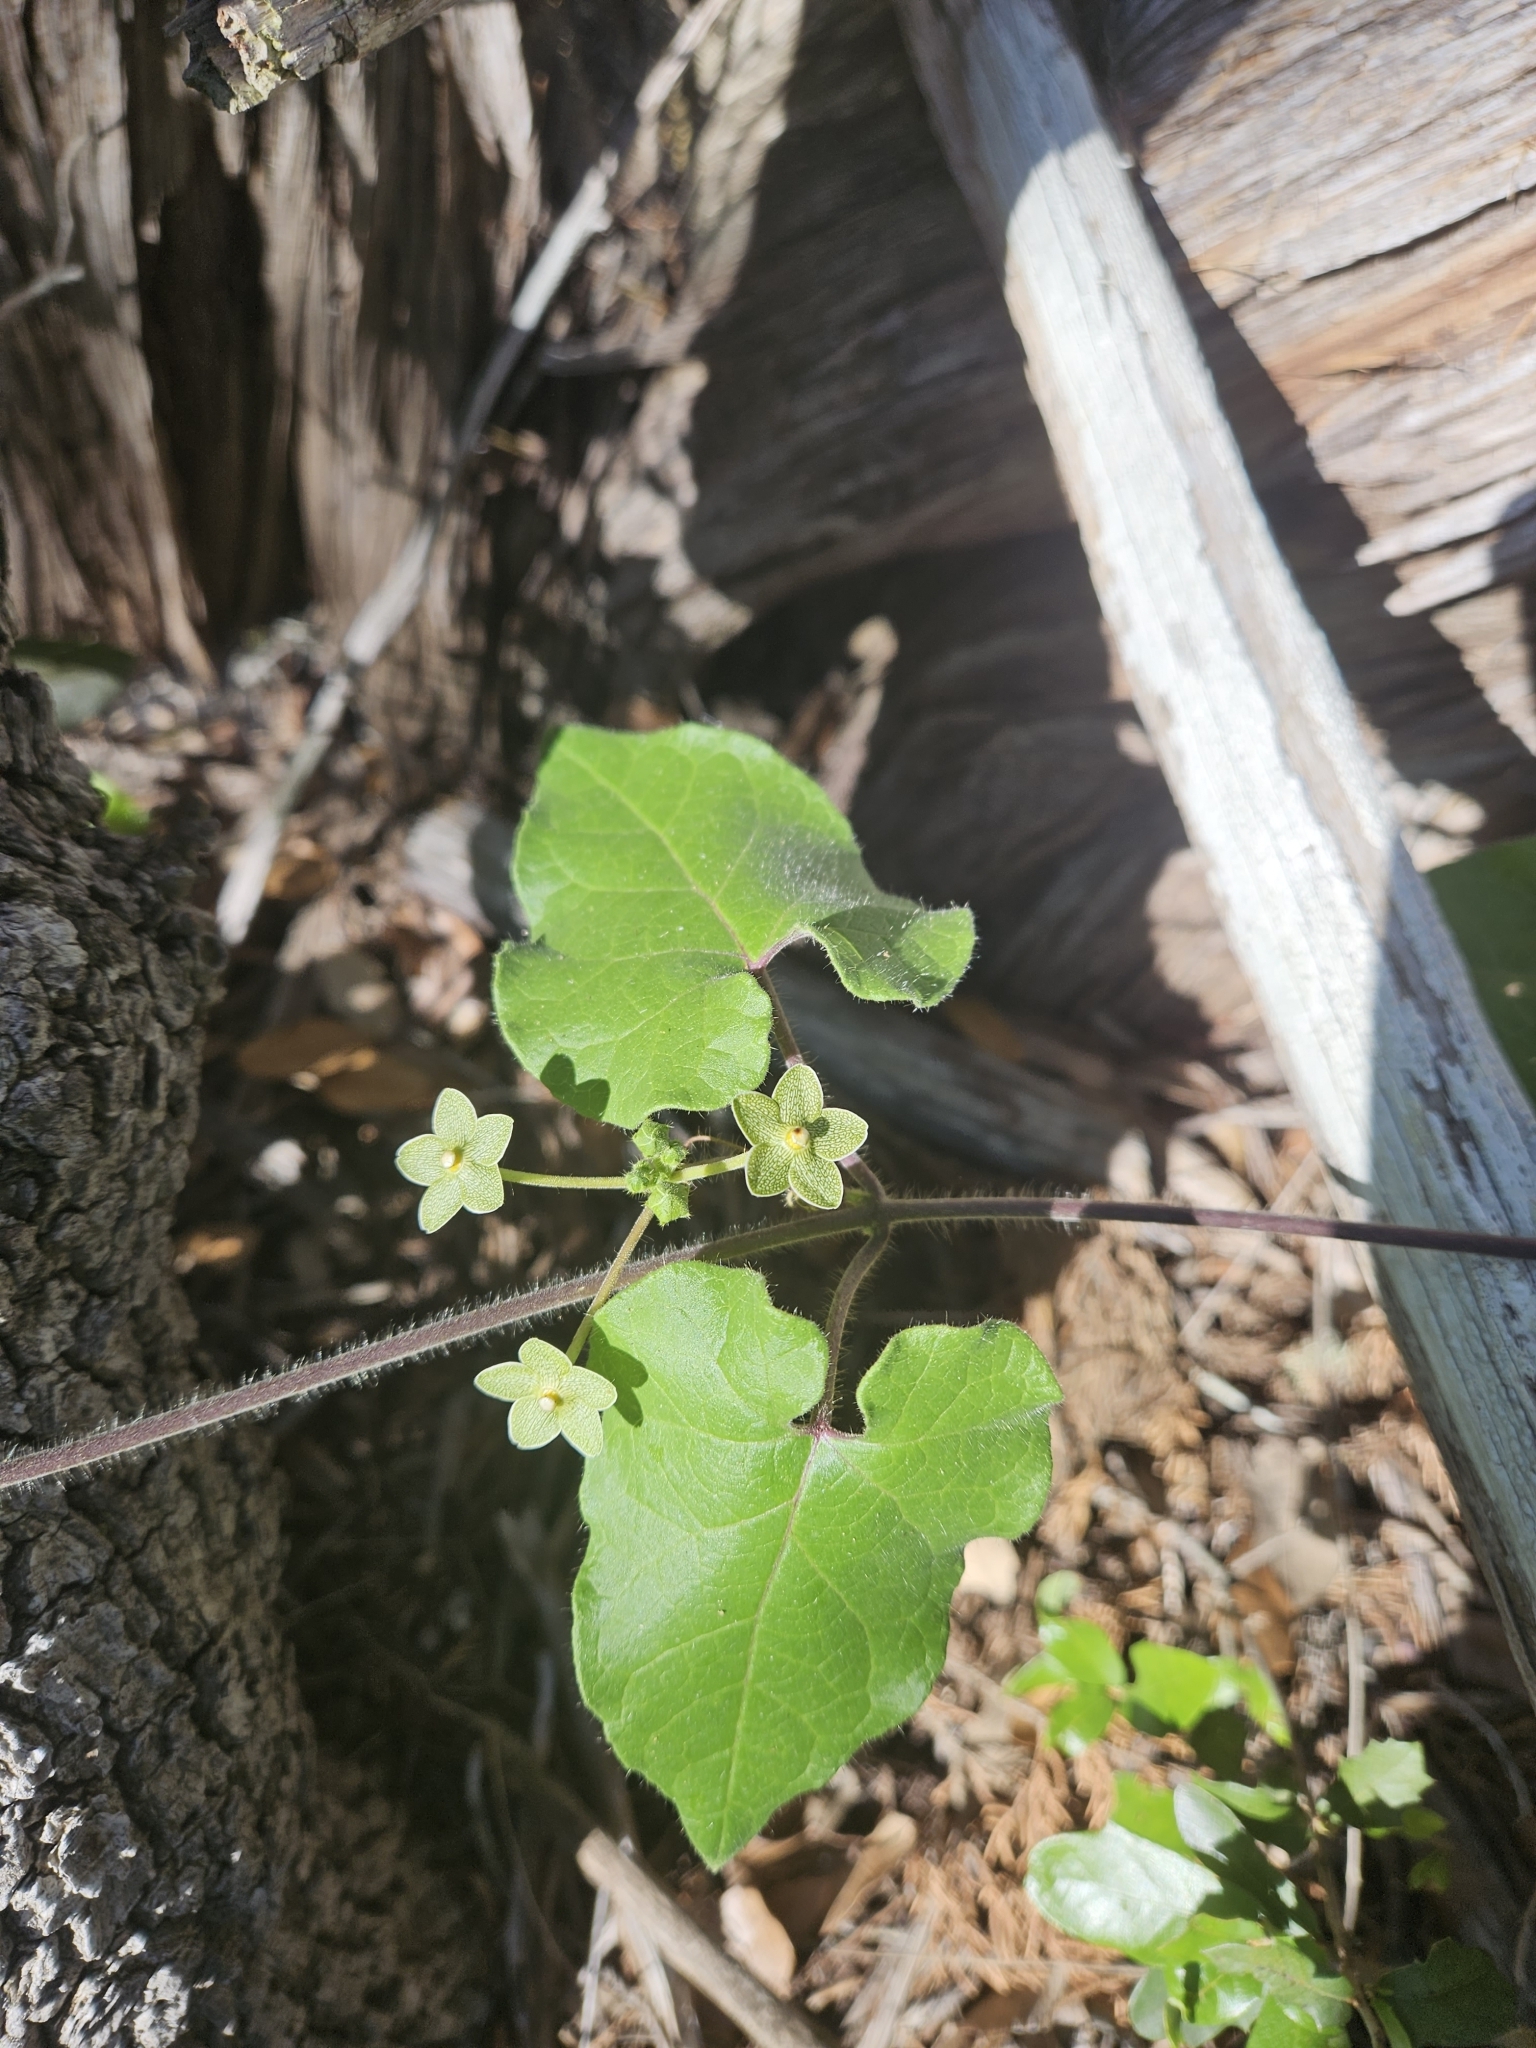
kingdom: Plantae
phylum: Tracheophyta
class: Magnoliopsida
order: Gentianales
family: Apocynaceae
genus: Dictyanthus
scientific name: Dictyanthus reticulatus
